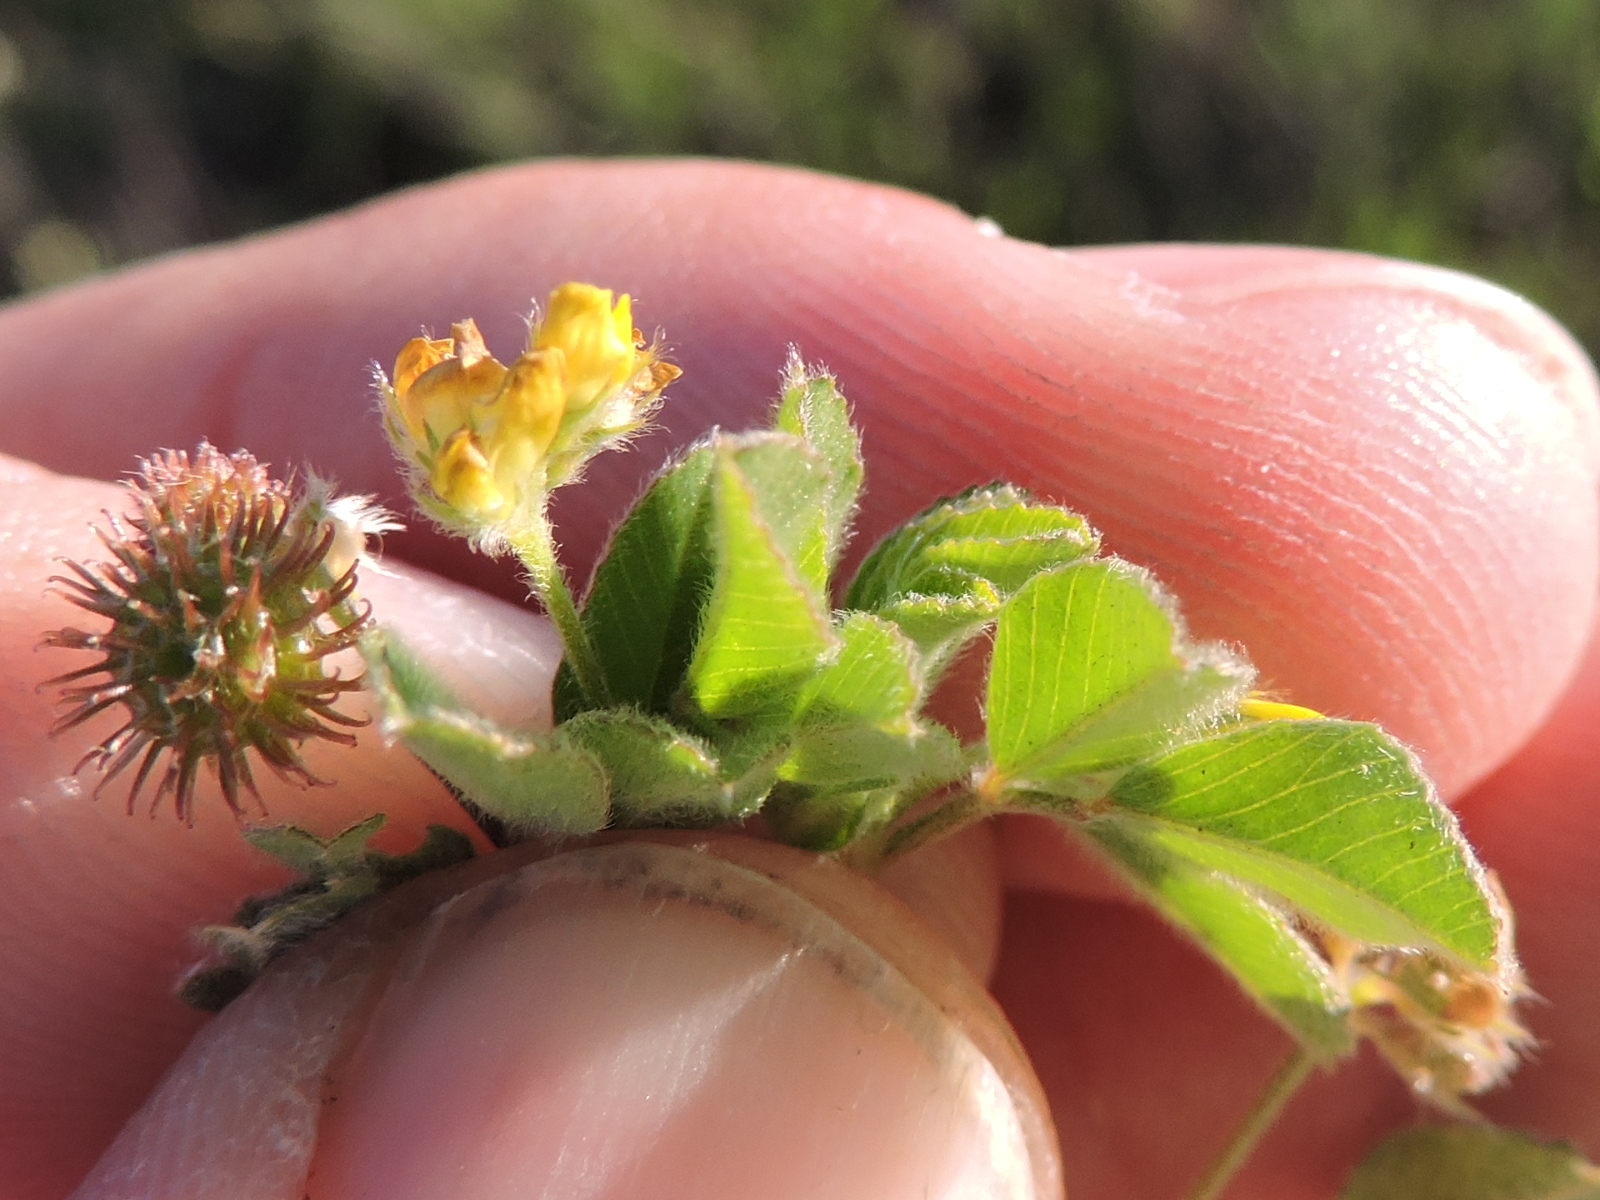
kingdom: Plantae
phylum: Tracheophyta
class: Magnoliopsida
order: Fabales
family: Fabaceae
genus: Medicago
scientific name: Medicago minima
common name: Little bur-clover
